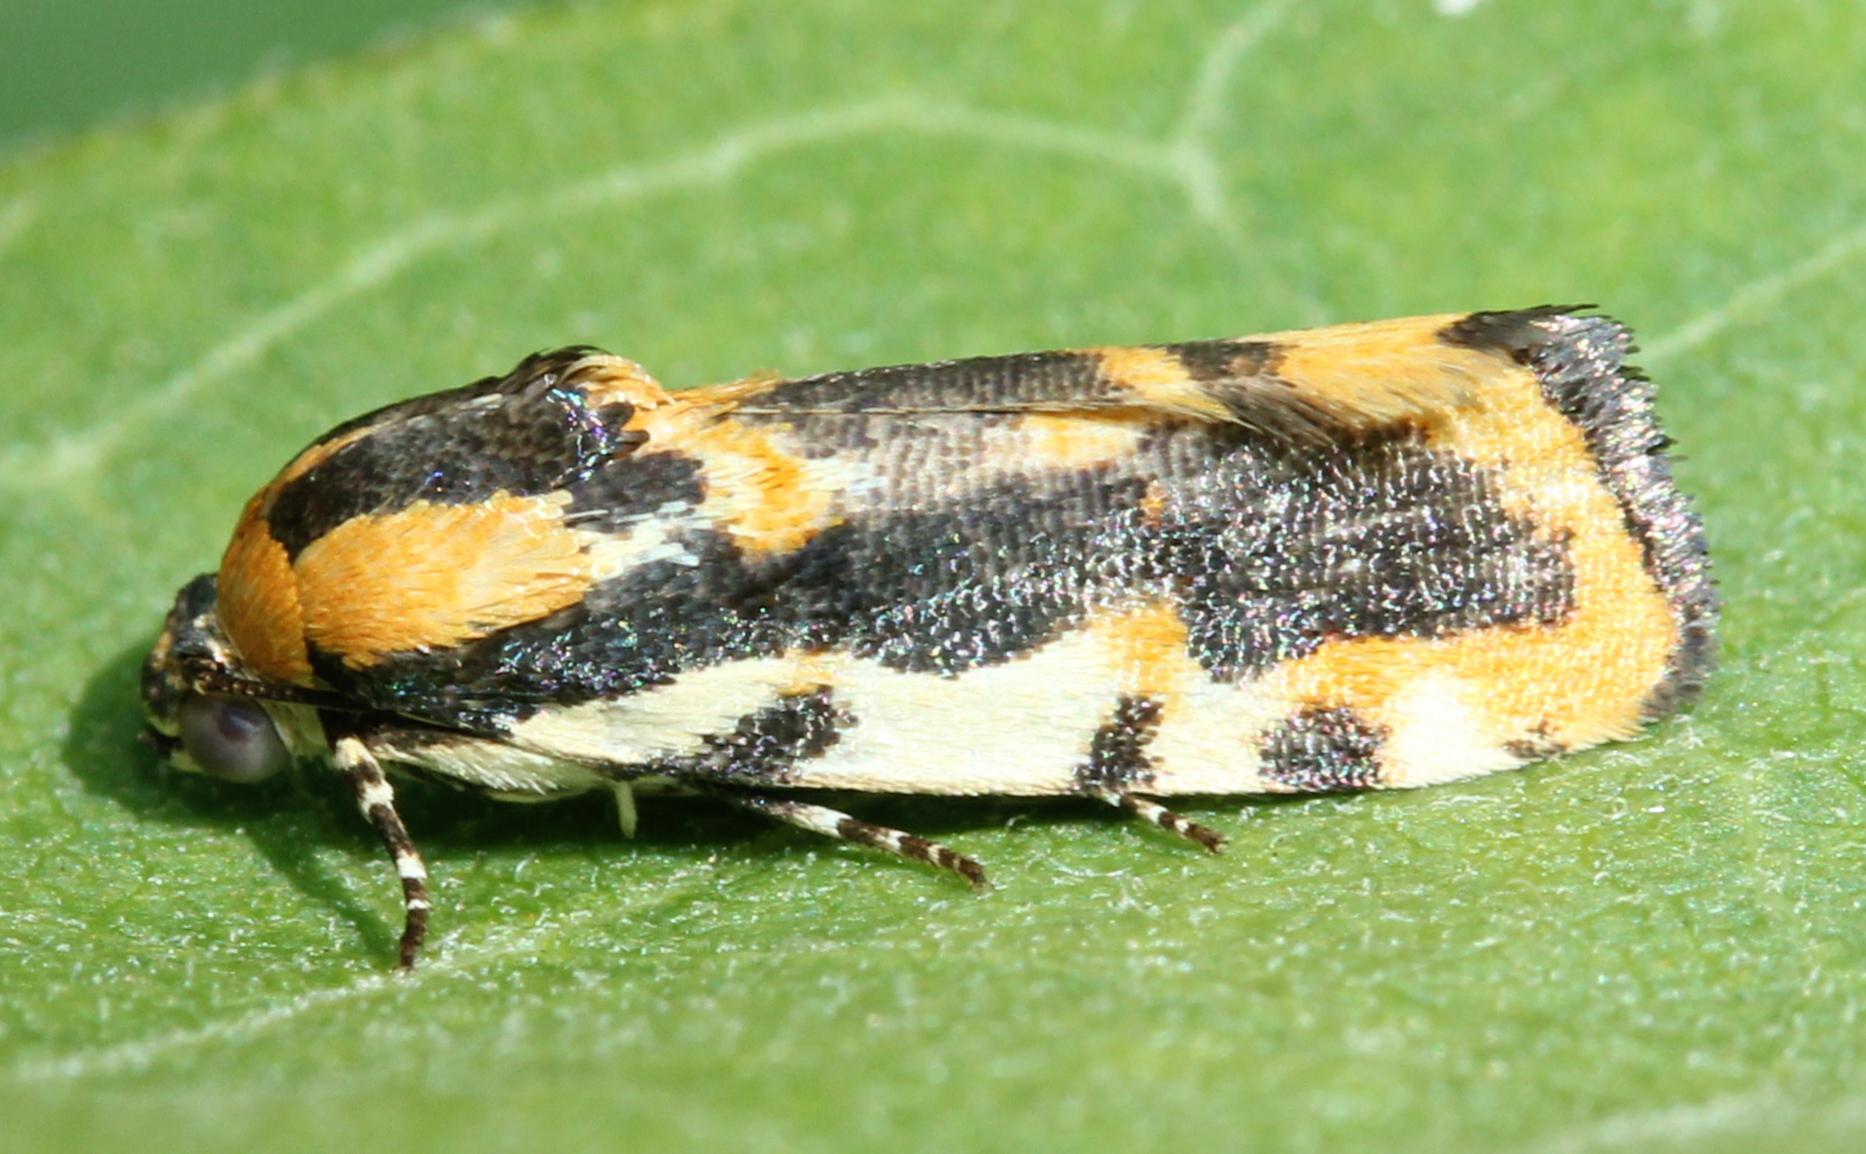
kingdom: Animalia
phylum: Arthropoda
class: Insecta
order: Lepidoptera
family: Noctuidae
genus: Acontia
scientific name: Acontia leo
